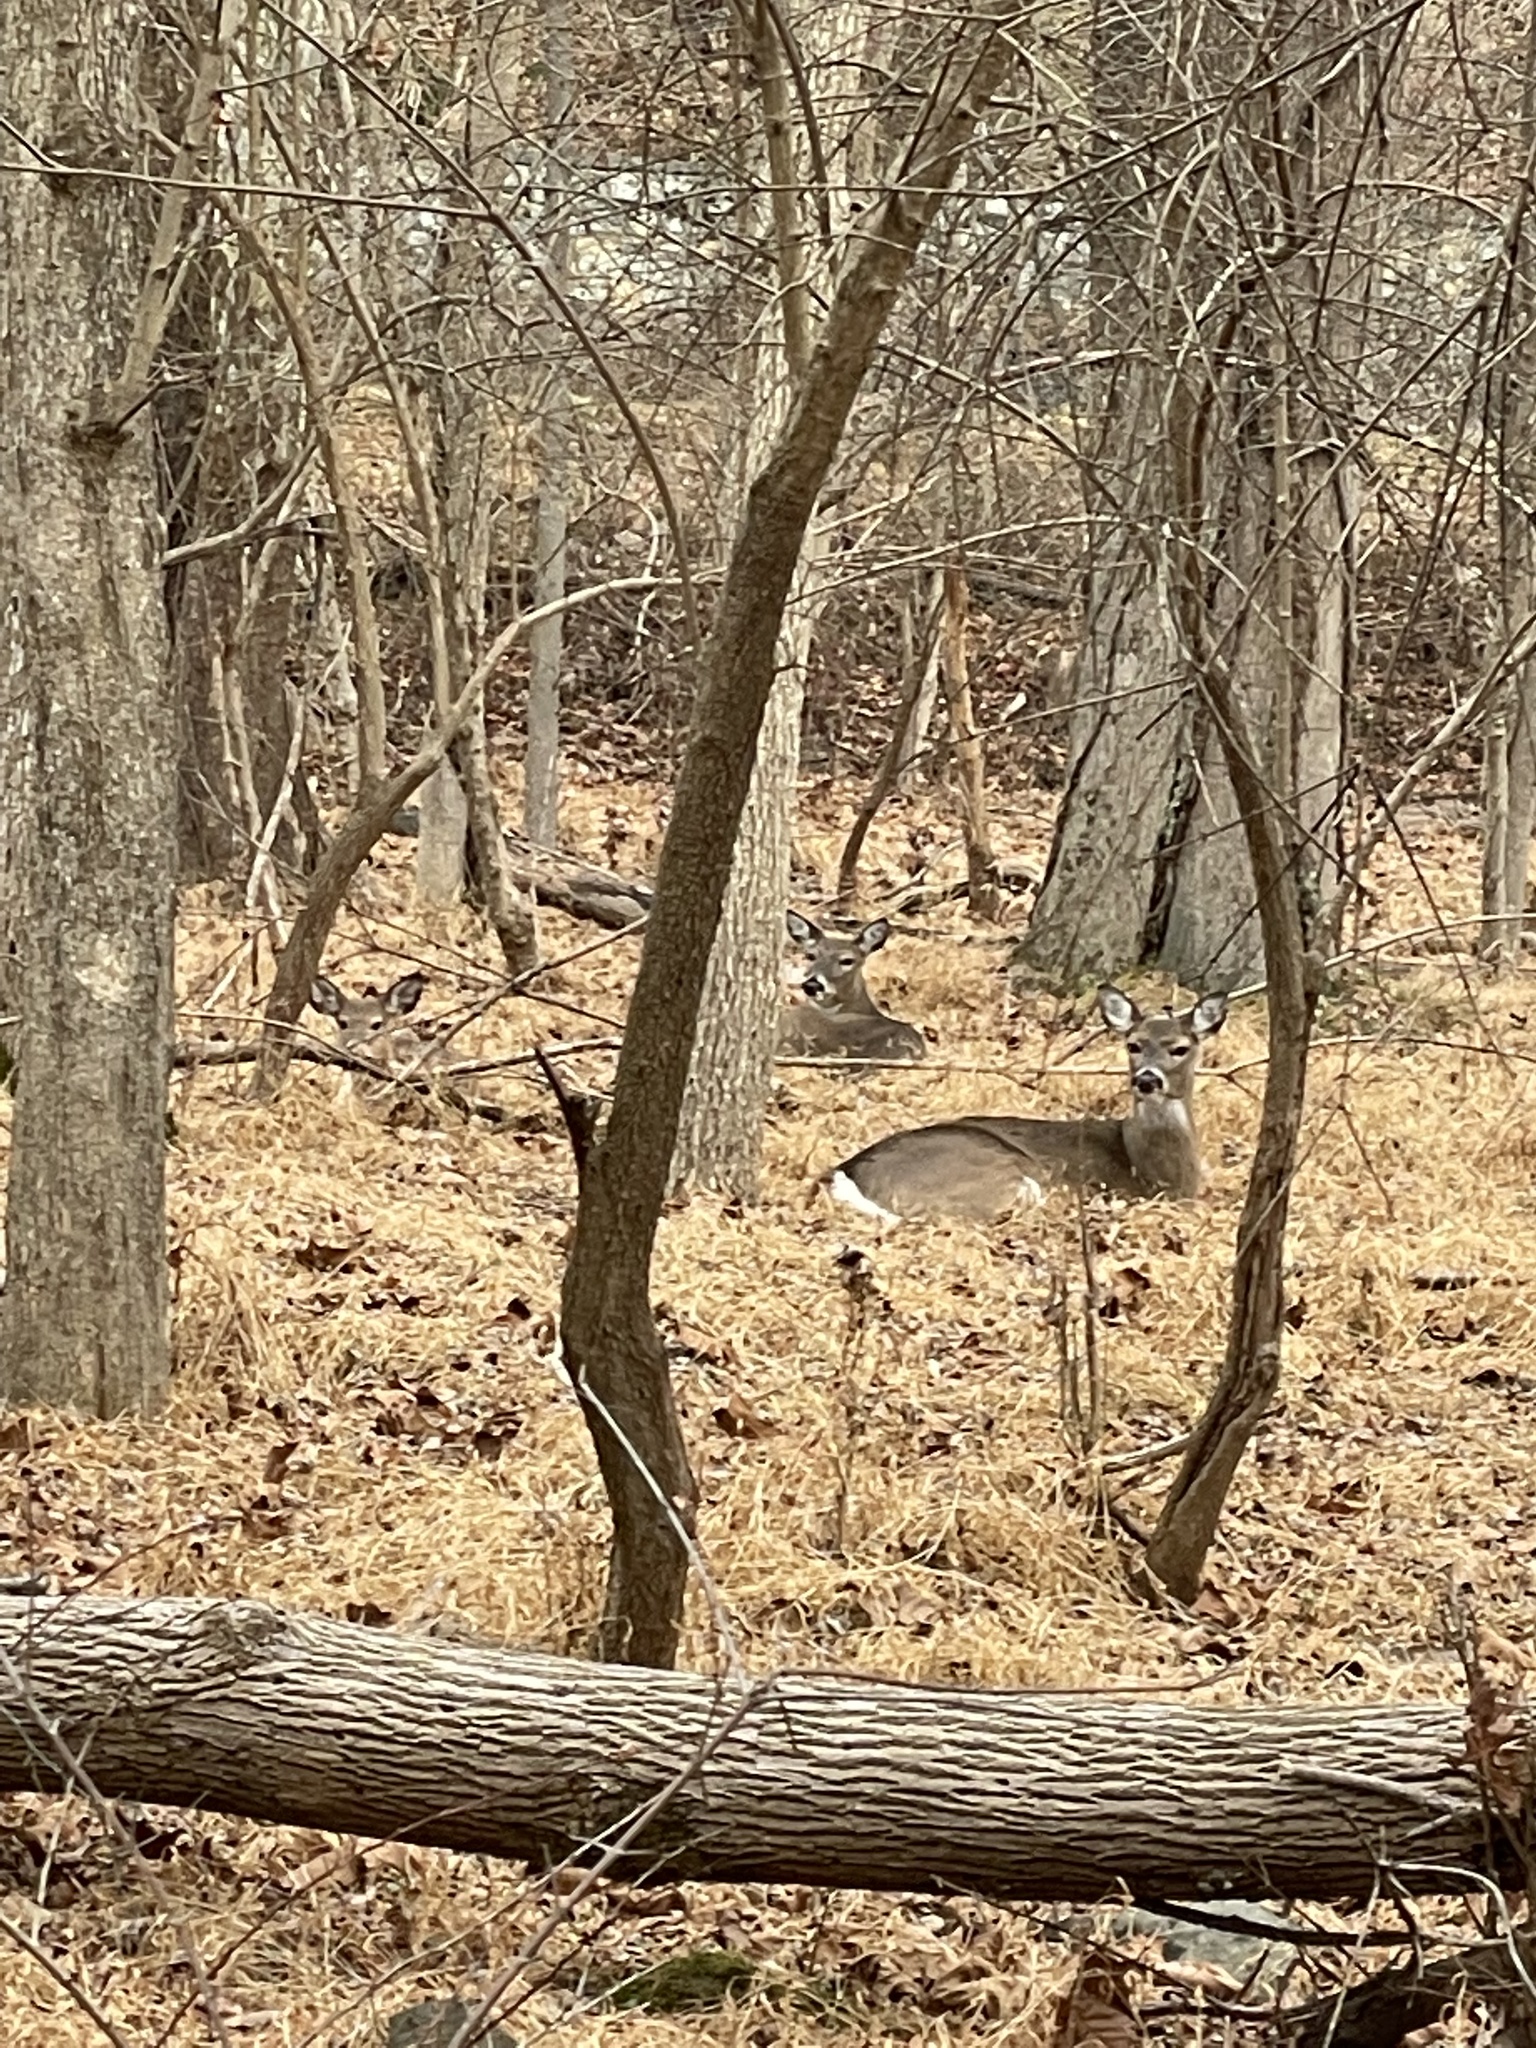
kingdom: Animalia
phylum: Chordata
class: Mammalia
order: Artiodactyla
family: Cervidae
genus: Odocoileus
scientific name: Odocoileus virginianus
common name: White-tailed deer
